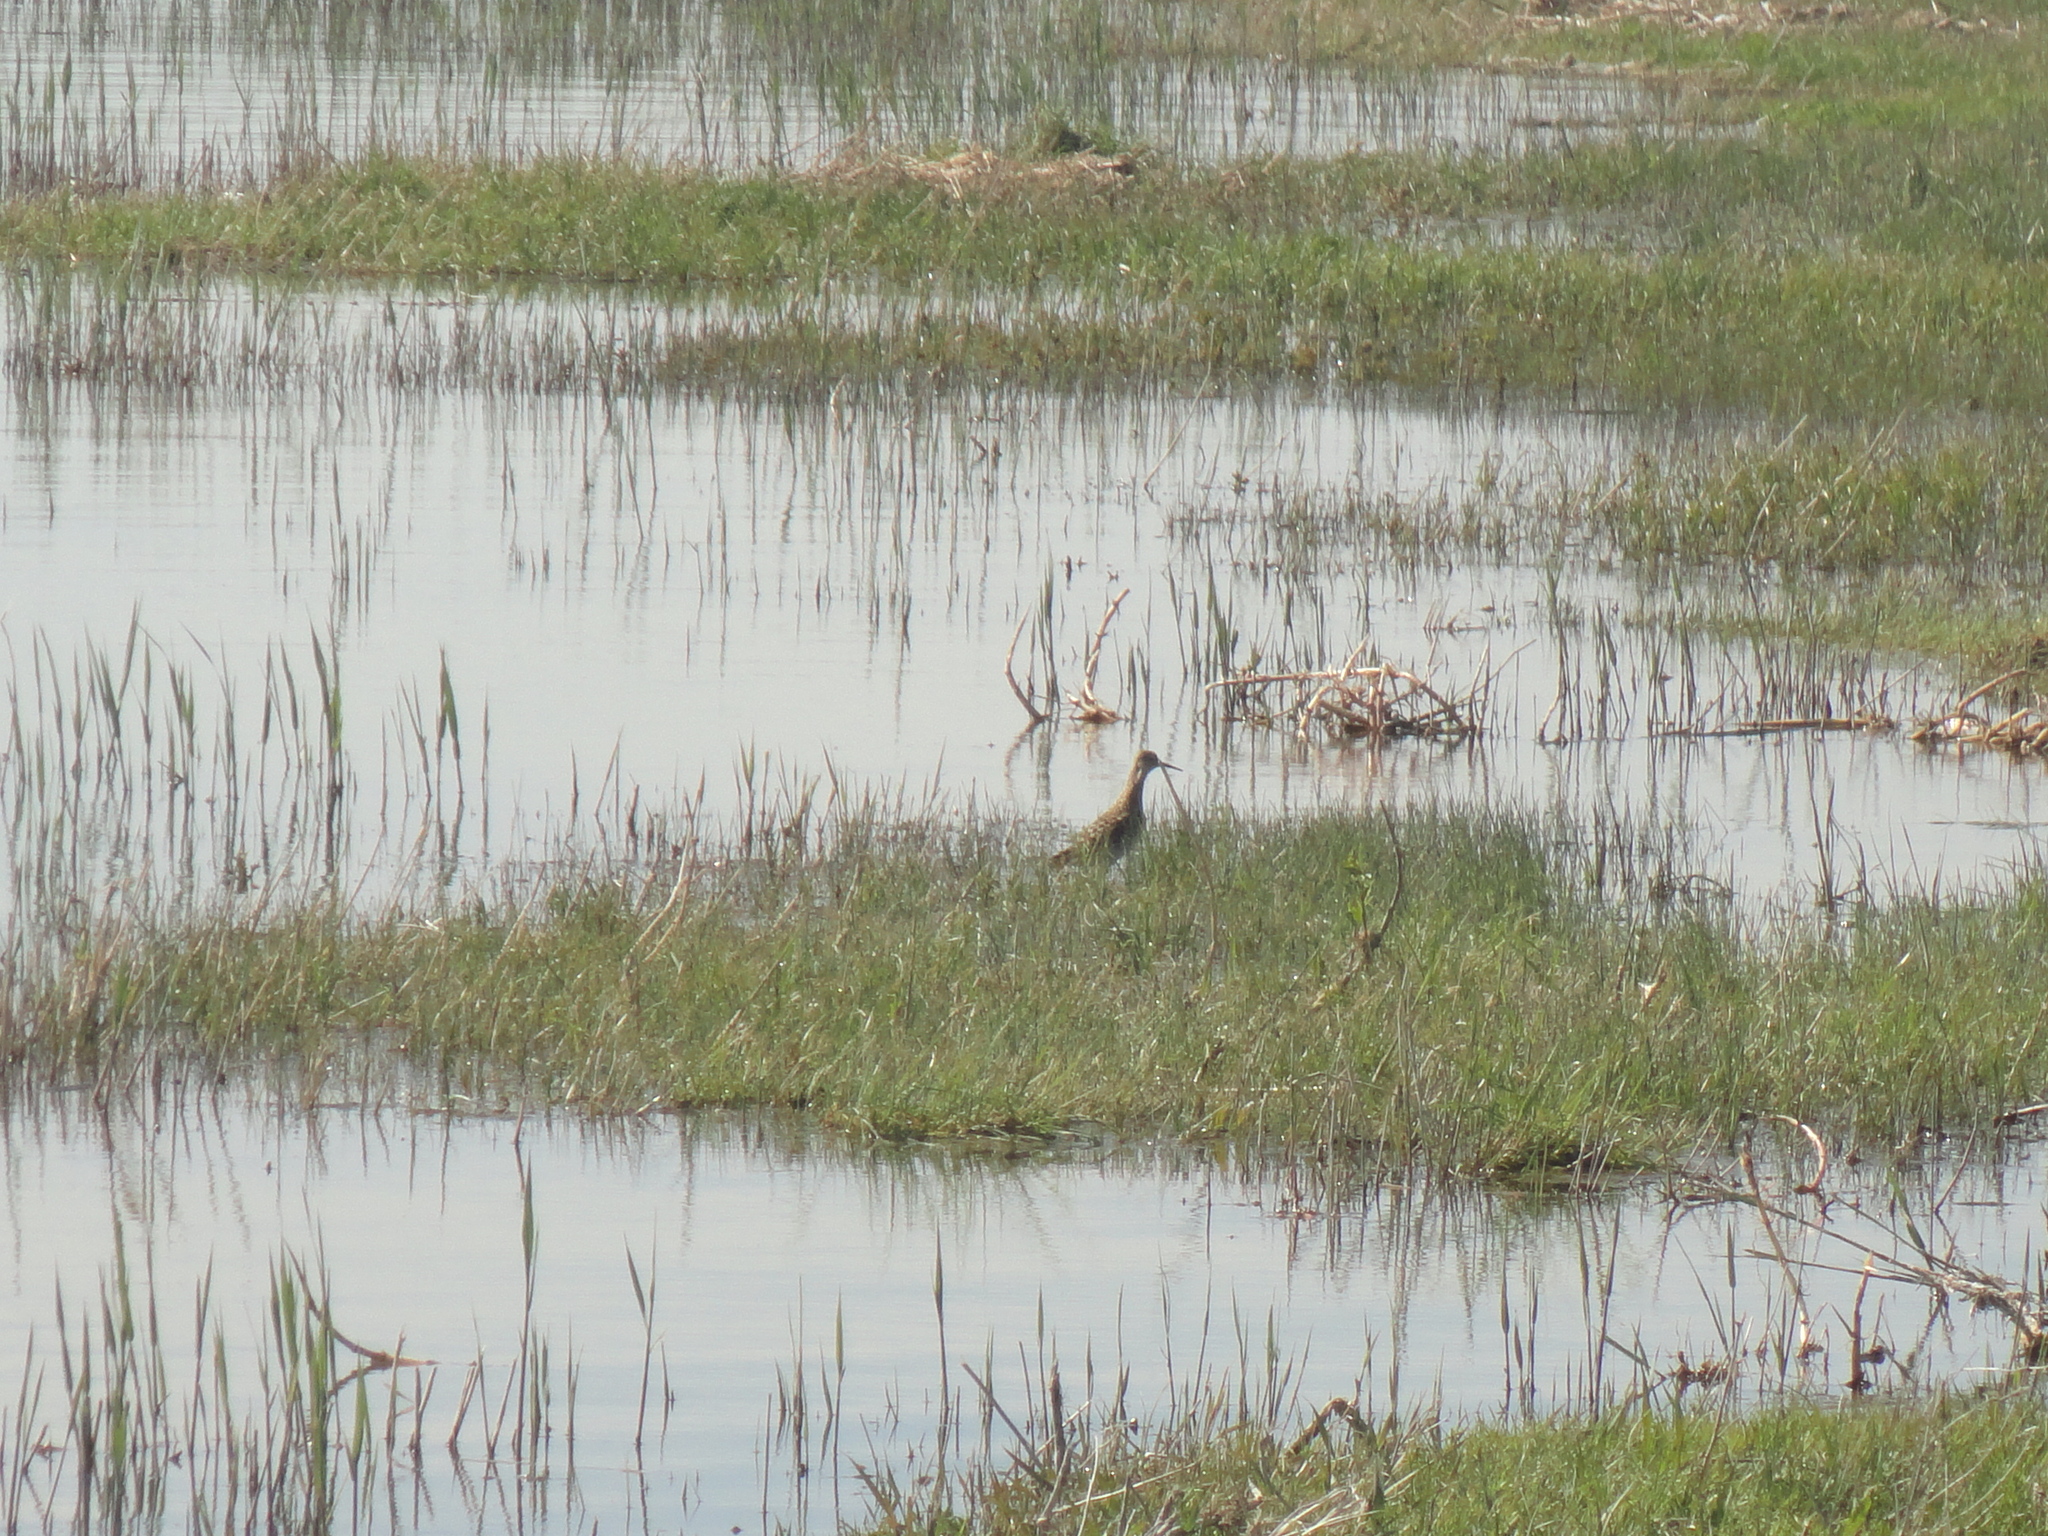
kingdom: Animalia
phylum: Chordata
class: Aves
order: Charadriiformes
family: Scolopacidae
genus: Calidris
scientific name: Calidris pugnax
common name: Ruff
